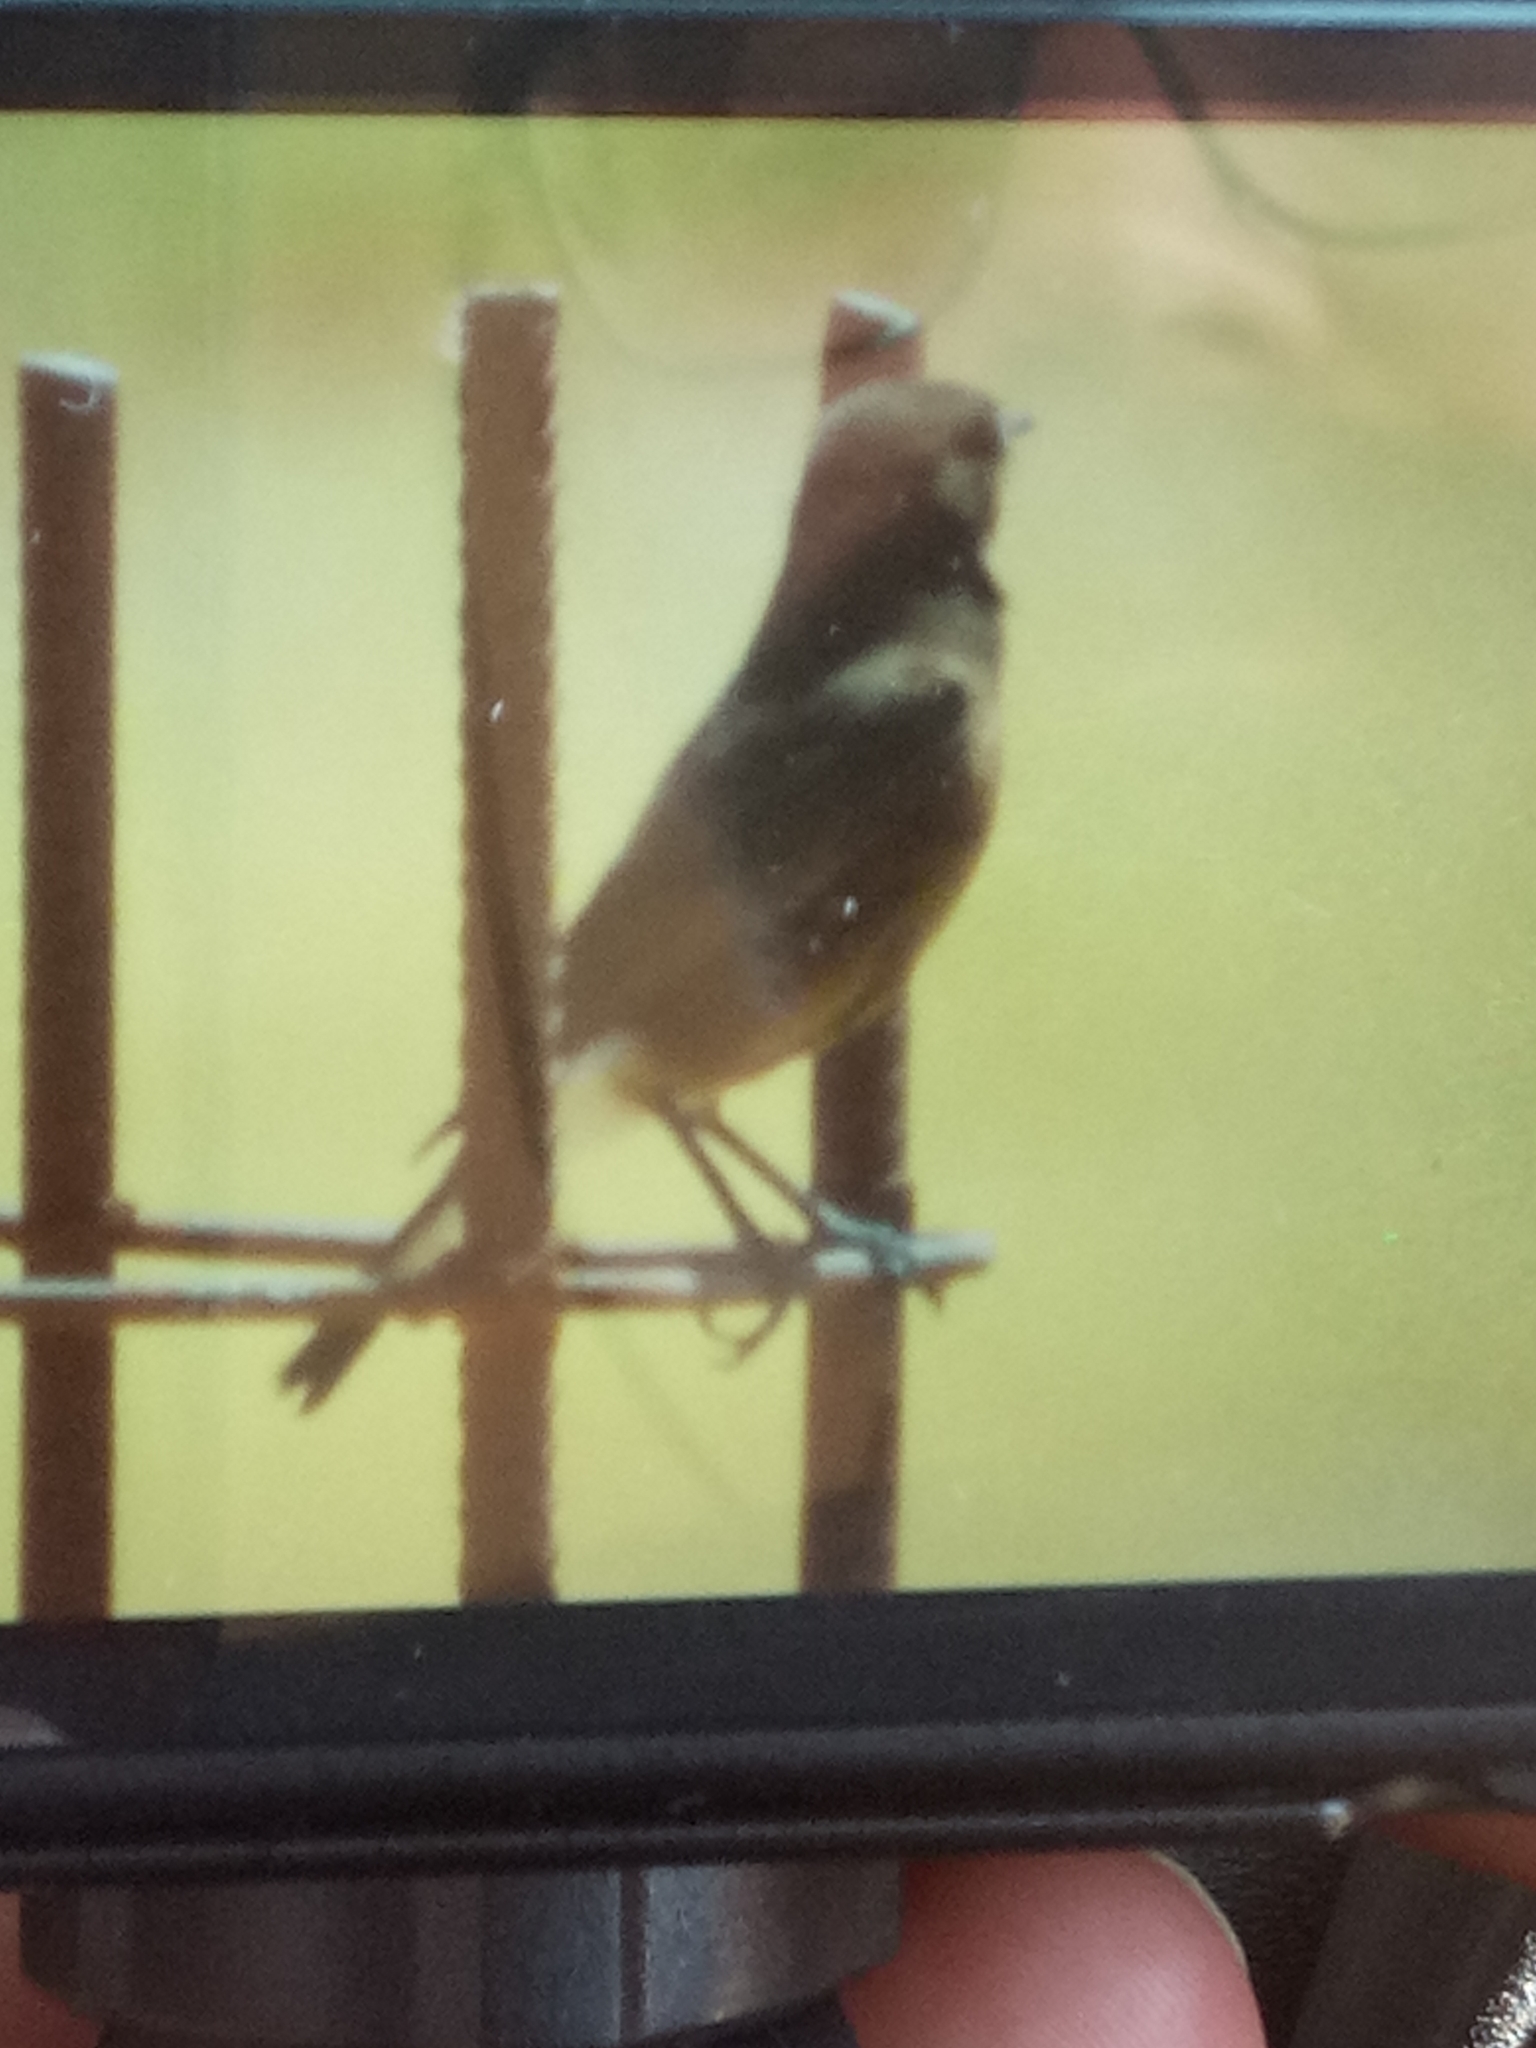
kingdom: Animalia
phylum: Chordata
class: Aves
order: Passeriformes
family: Muscicapidae
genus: Oenanthe
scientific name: Oenanthe leucura
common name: Black wheatear
